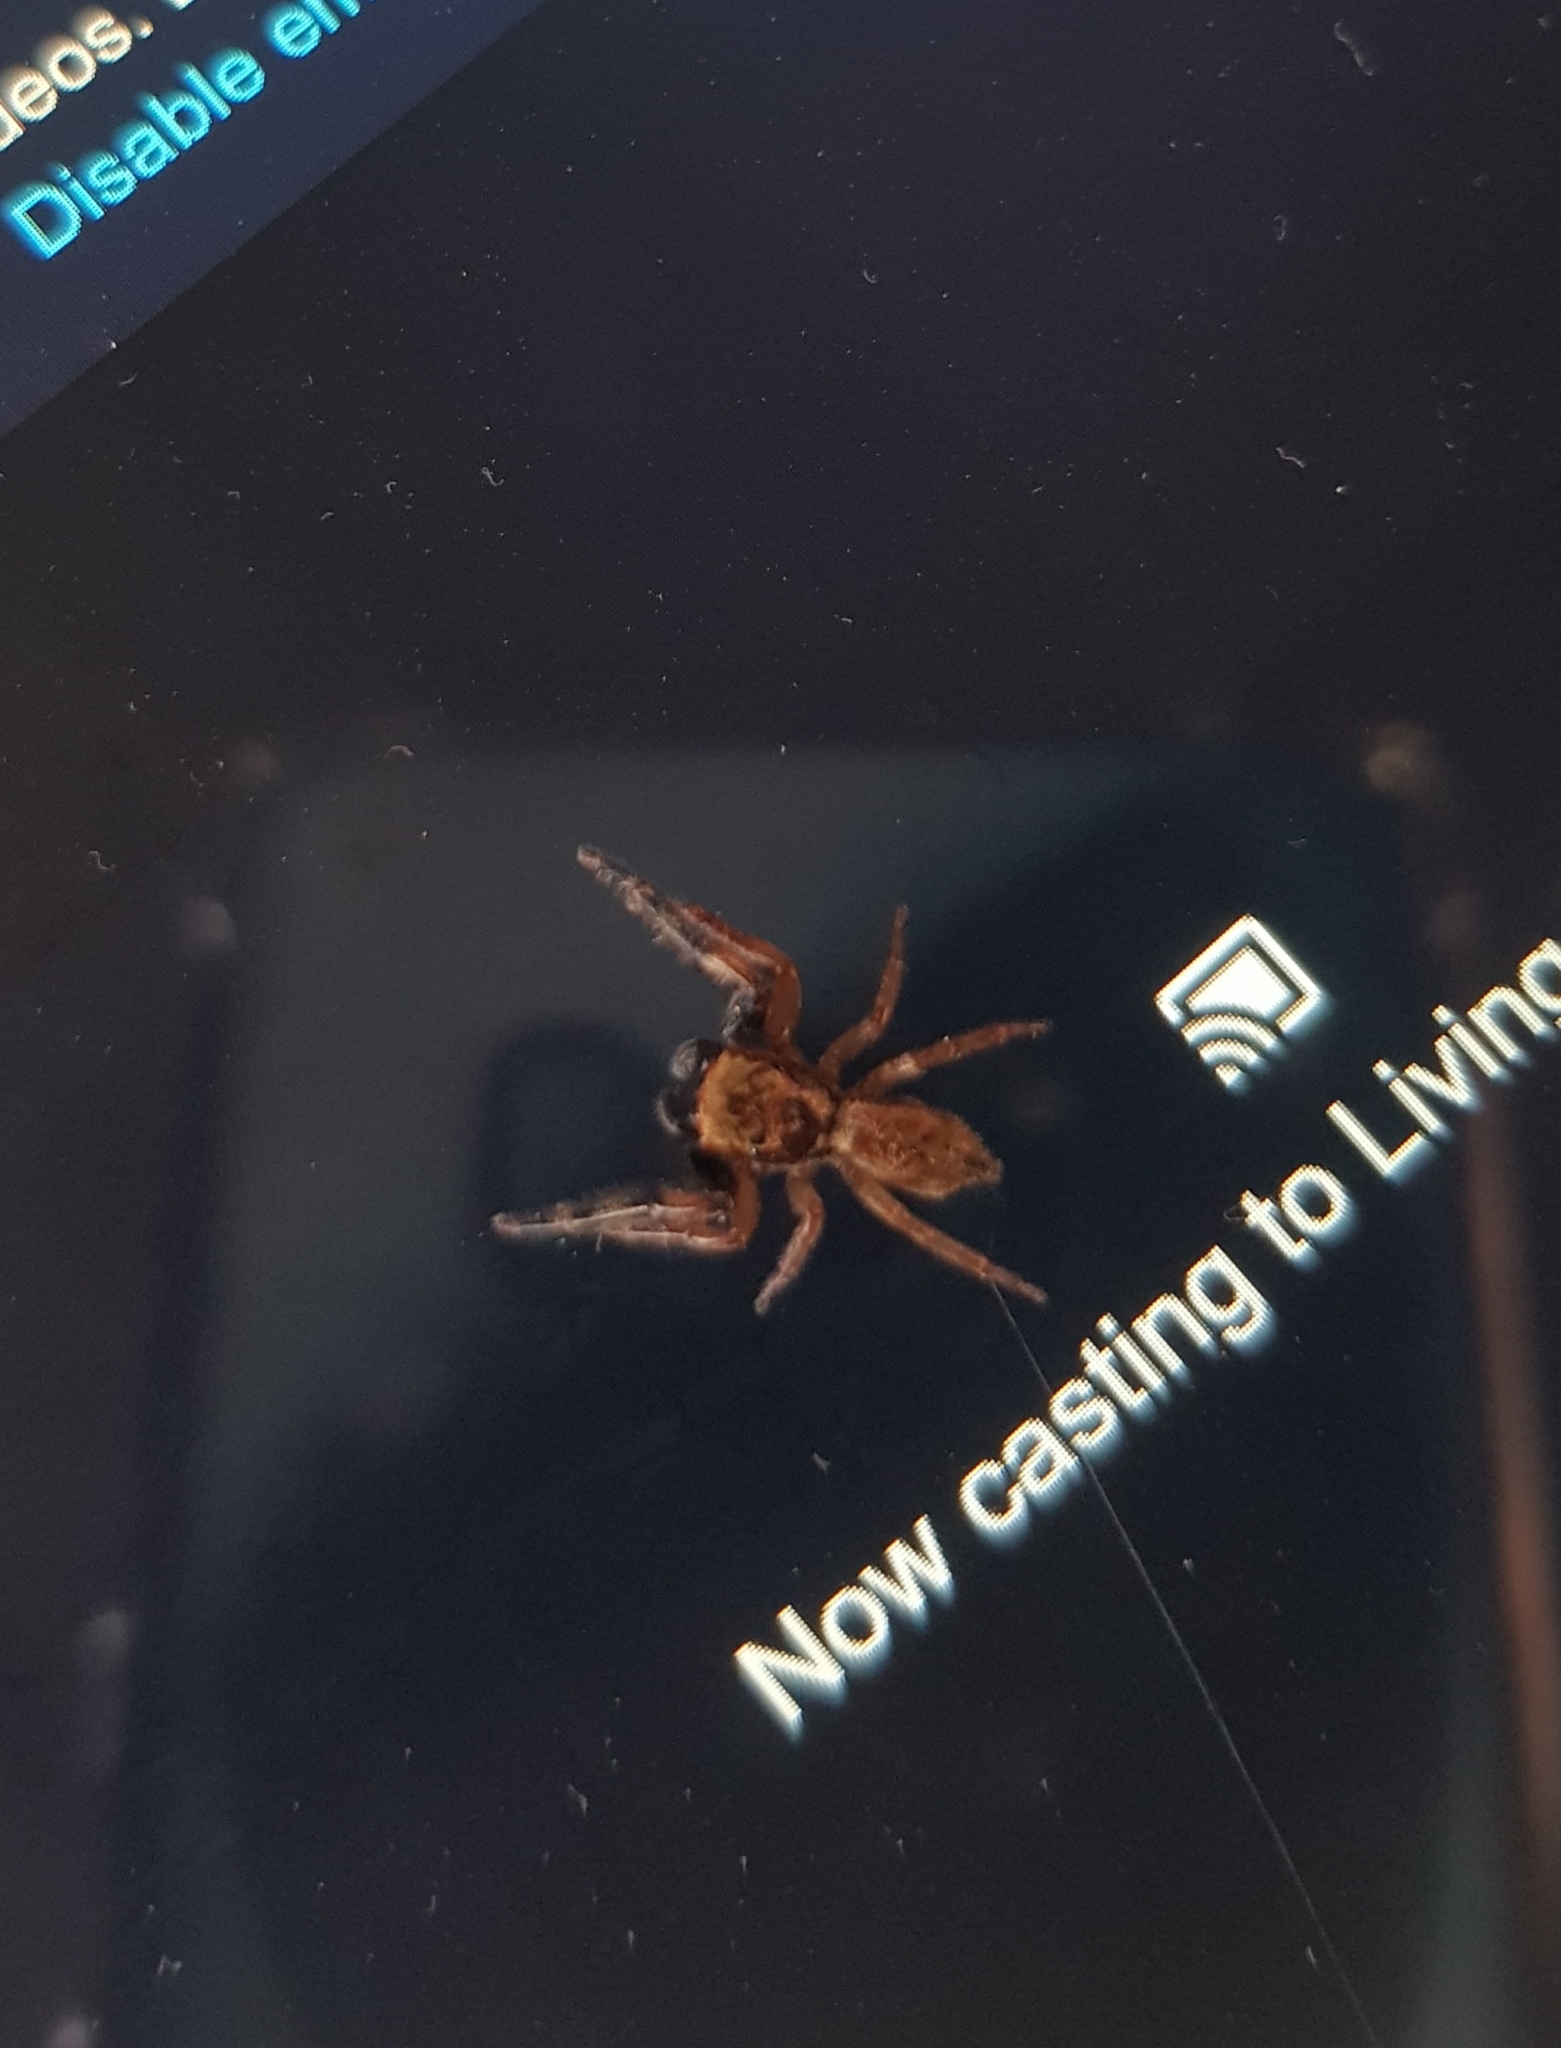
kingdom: Animalia
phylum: Arthropoda
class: Arachnida
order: Araneae
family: Salticidae
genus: Trite
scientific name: Trite auricoma
